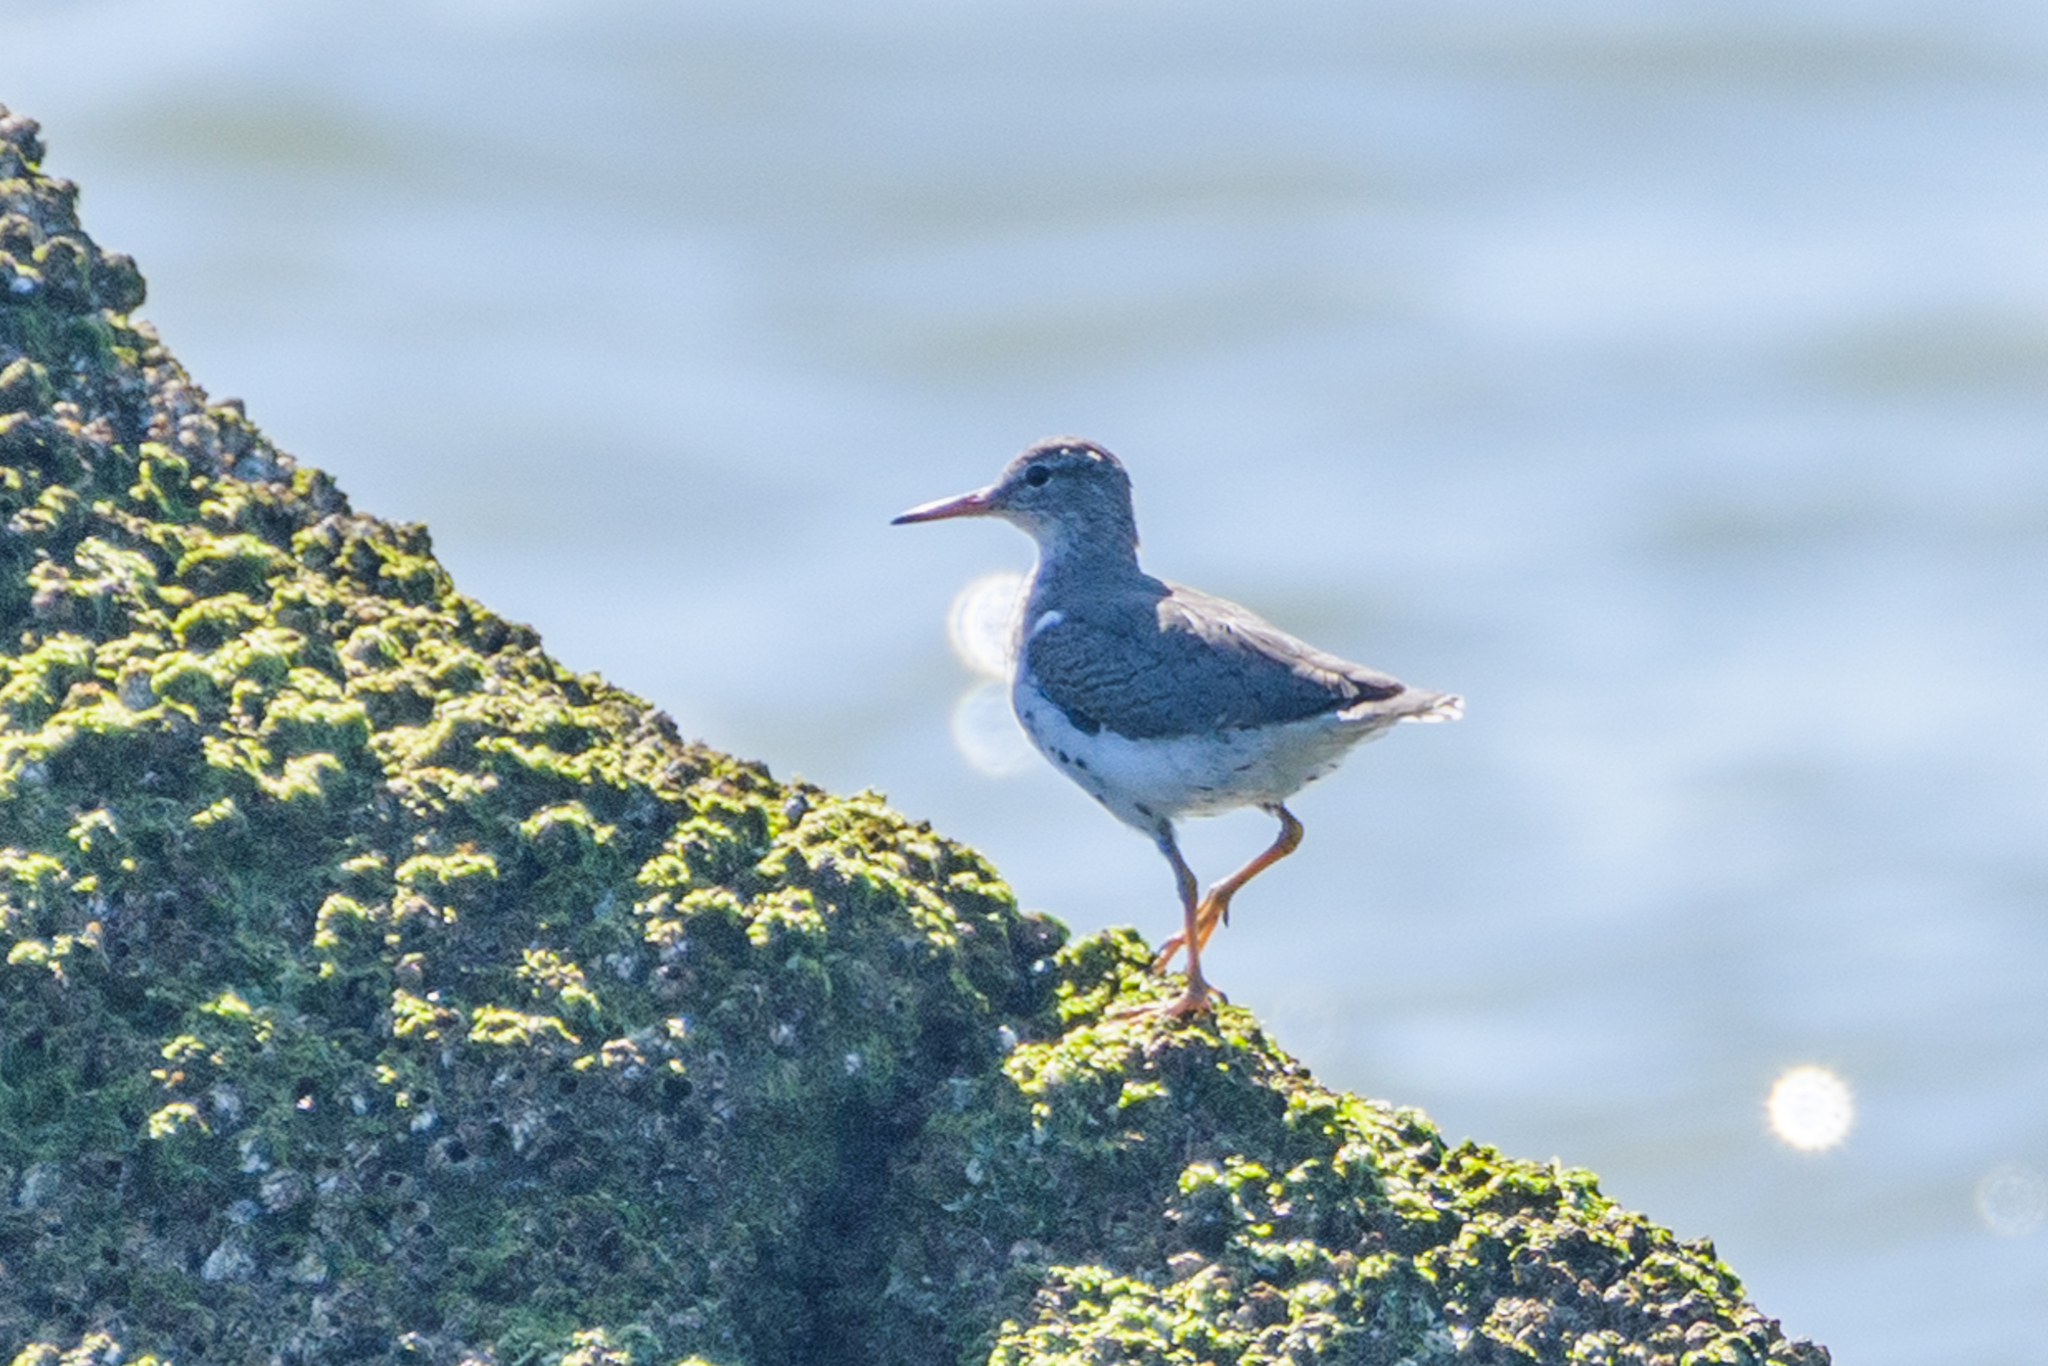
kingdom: Animalia
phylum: Chordata
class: Aves
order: Charadriiformes
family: Scolopacidae
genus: Actitis
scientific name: Actitis macularius
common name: Spotted sandpiper
